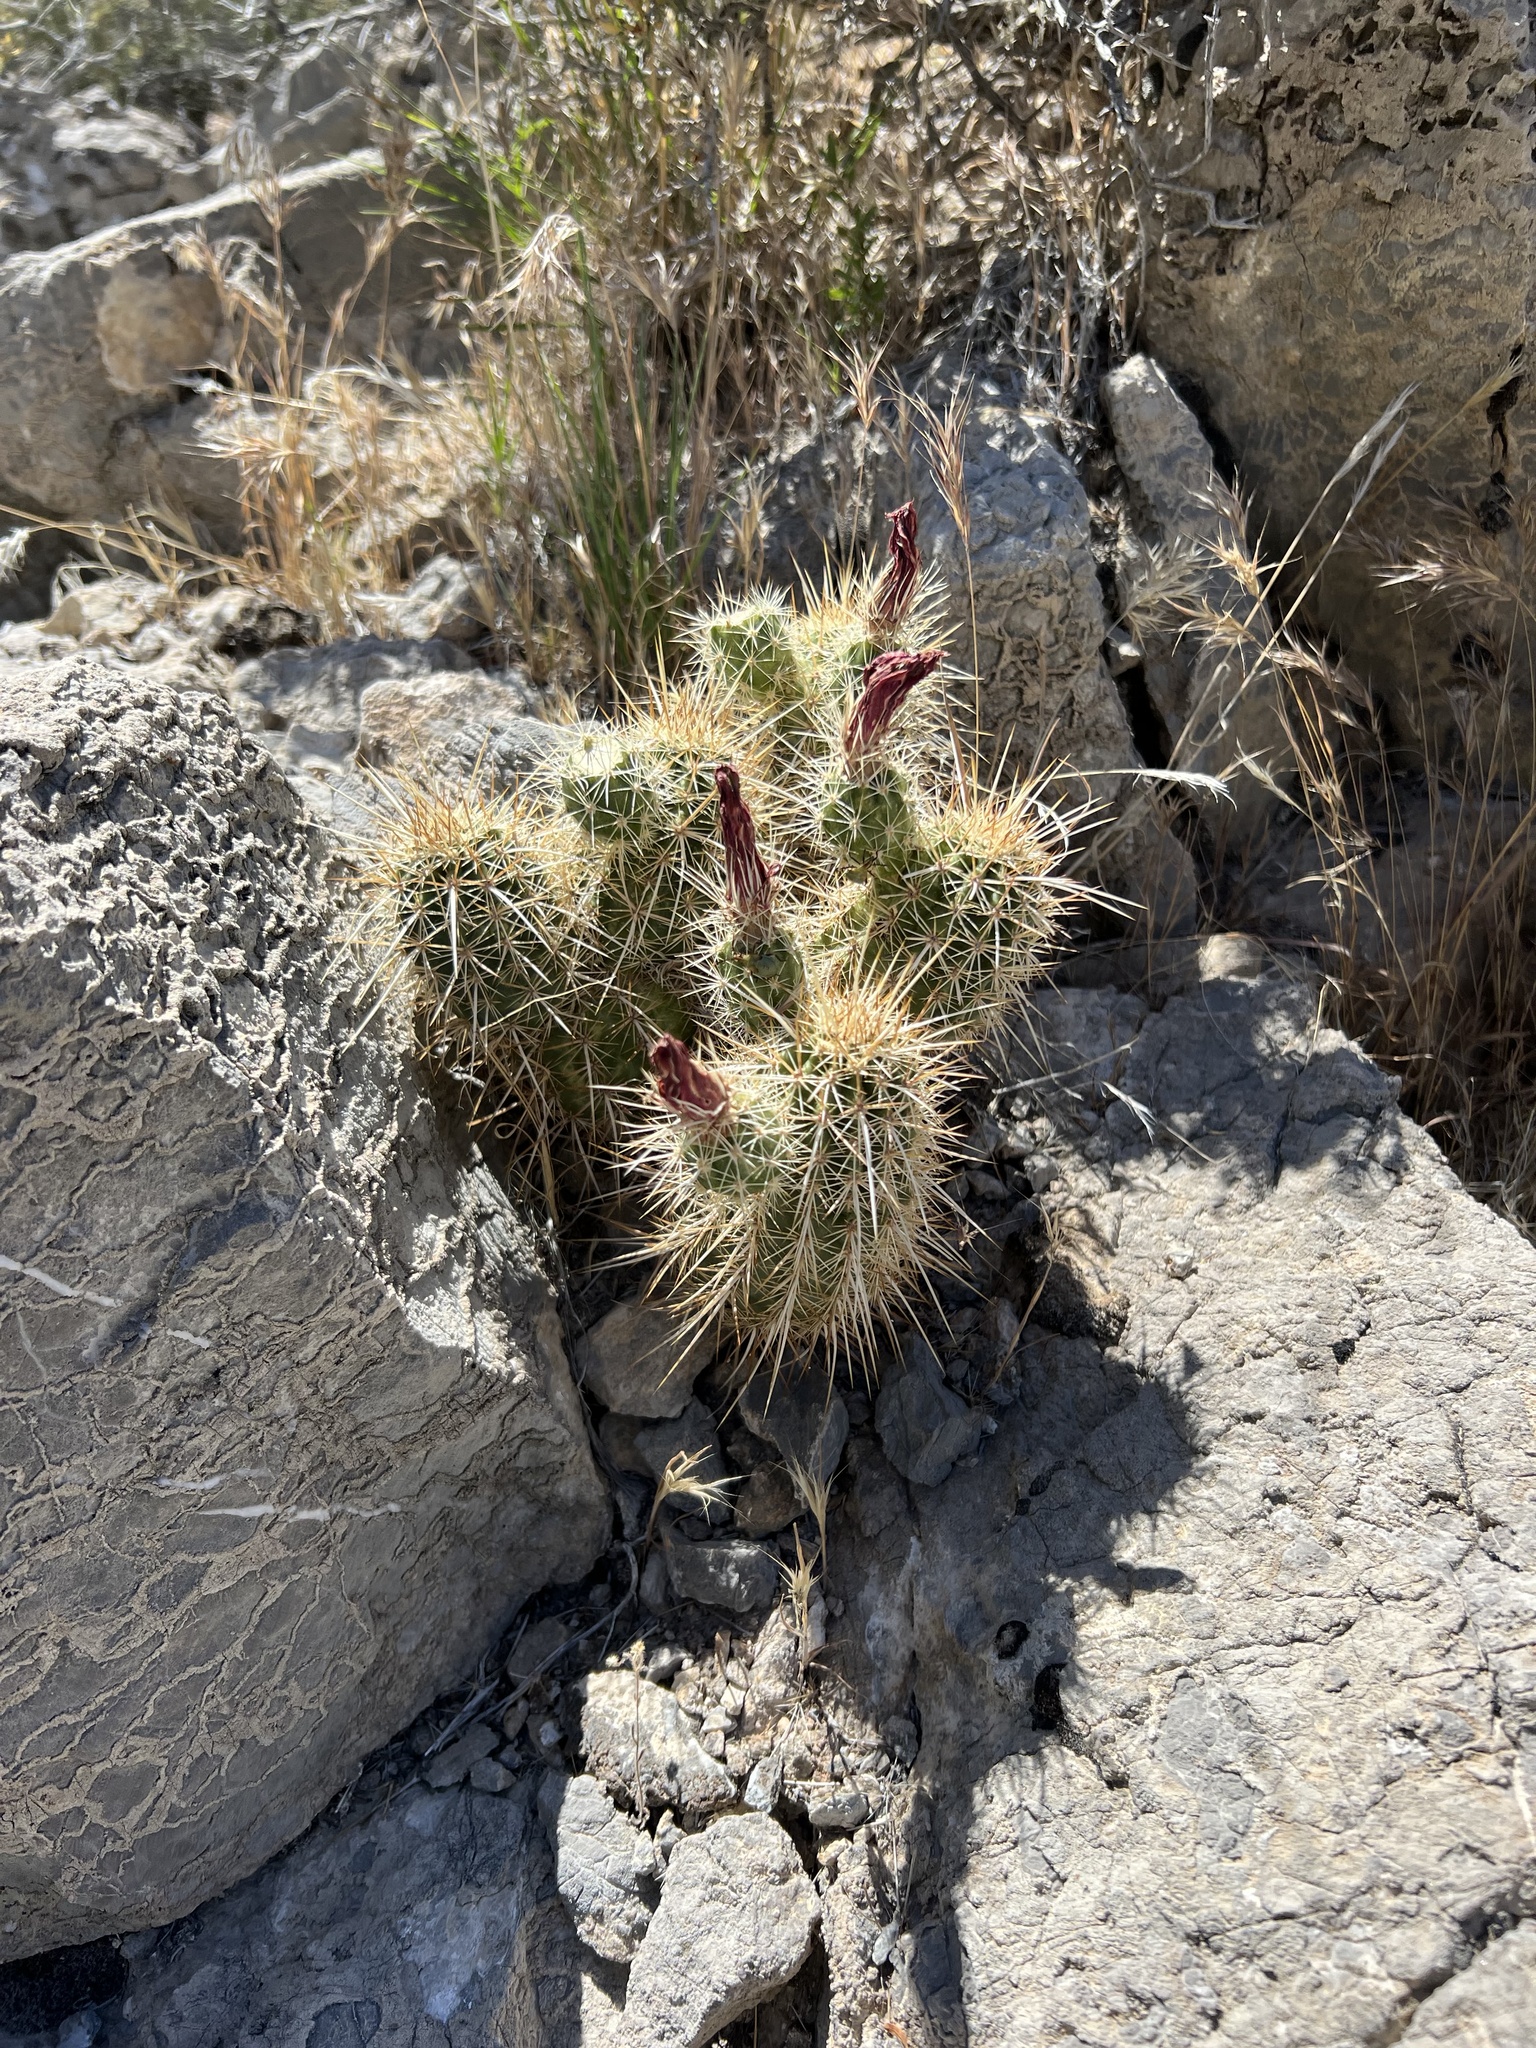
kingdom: Plantae
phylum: Tracheophyta
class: Magnoliopsida
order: Caryophyllales
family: Cactaceae
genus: Echinocereus
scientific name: Echinocereus engelmannii
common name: Engelmann's hedgehog cactus
